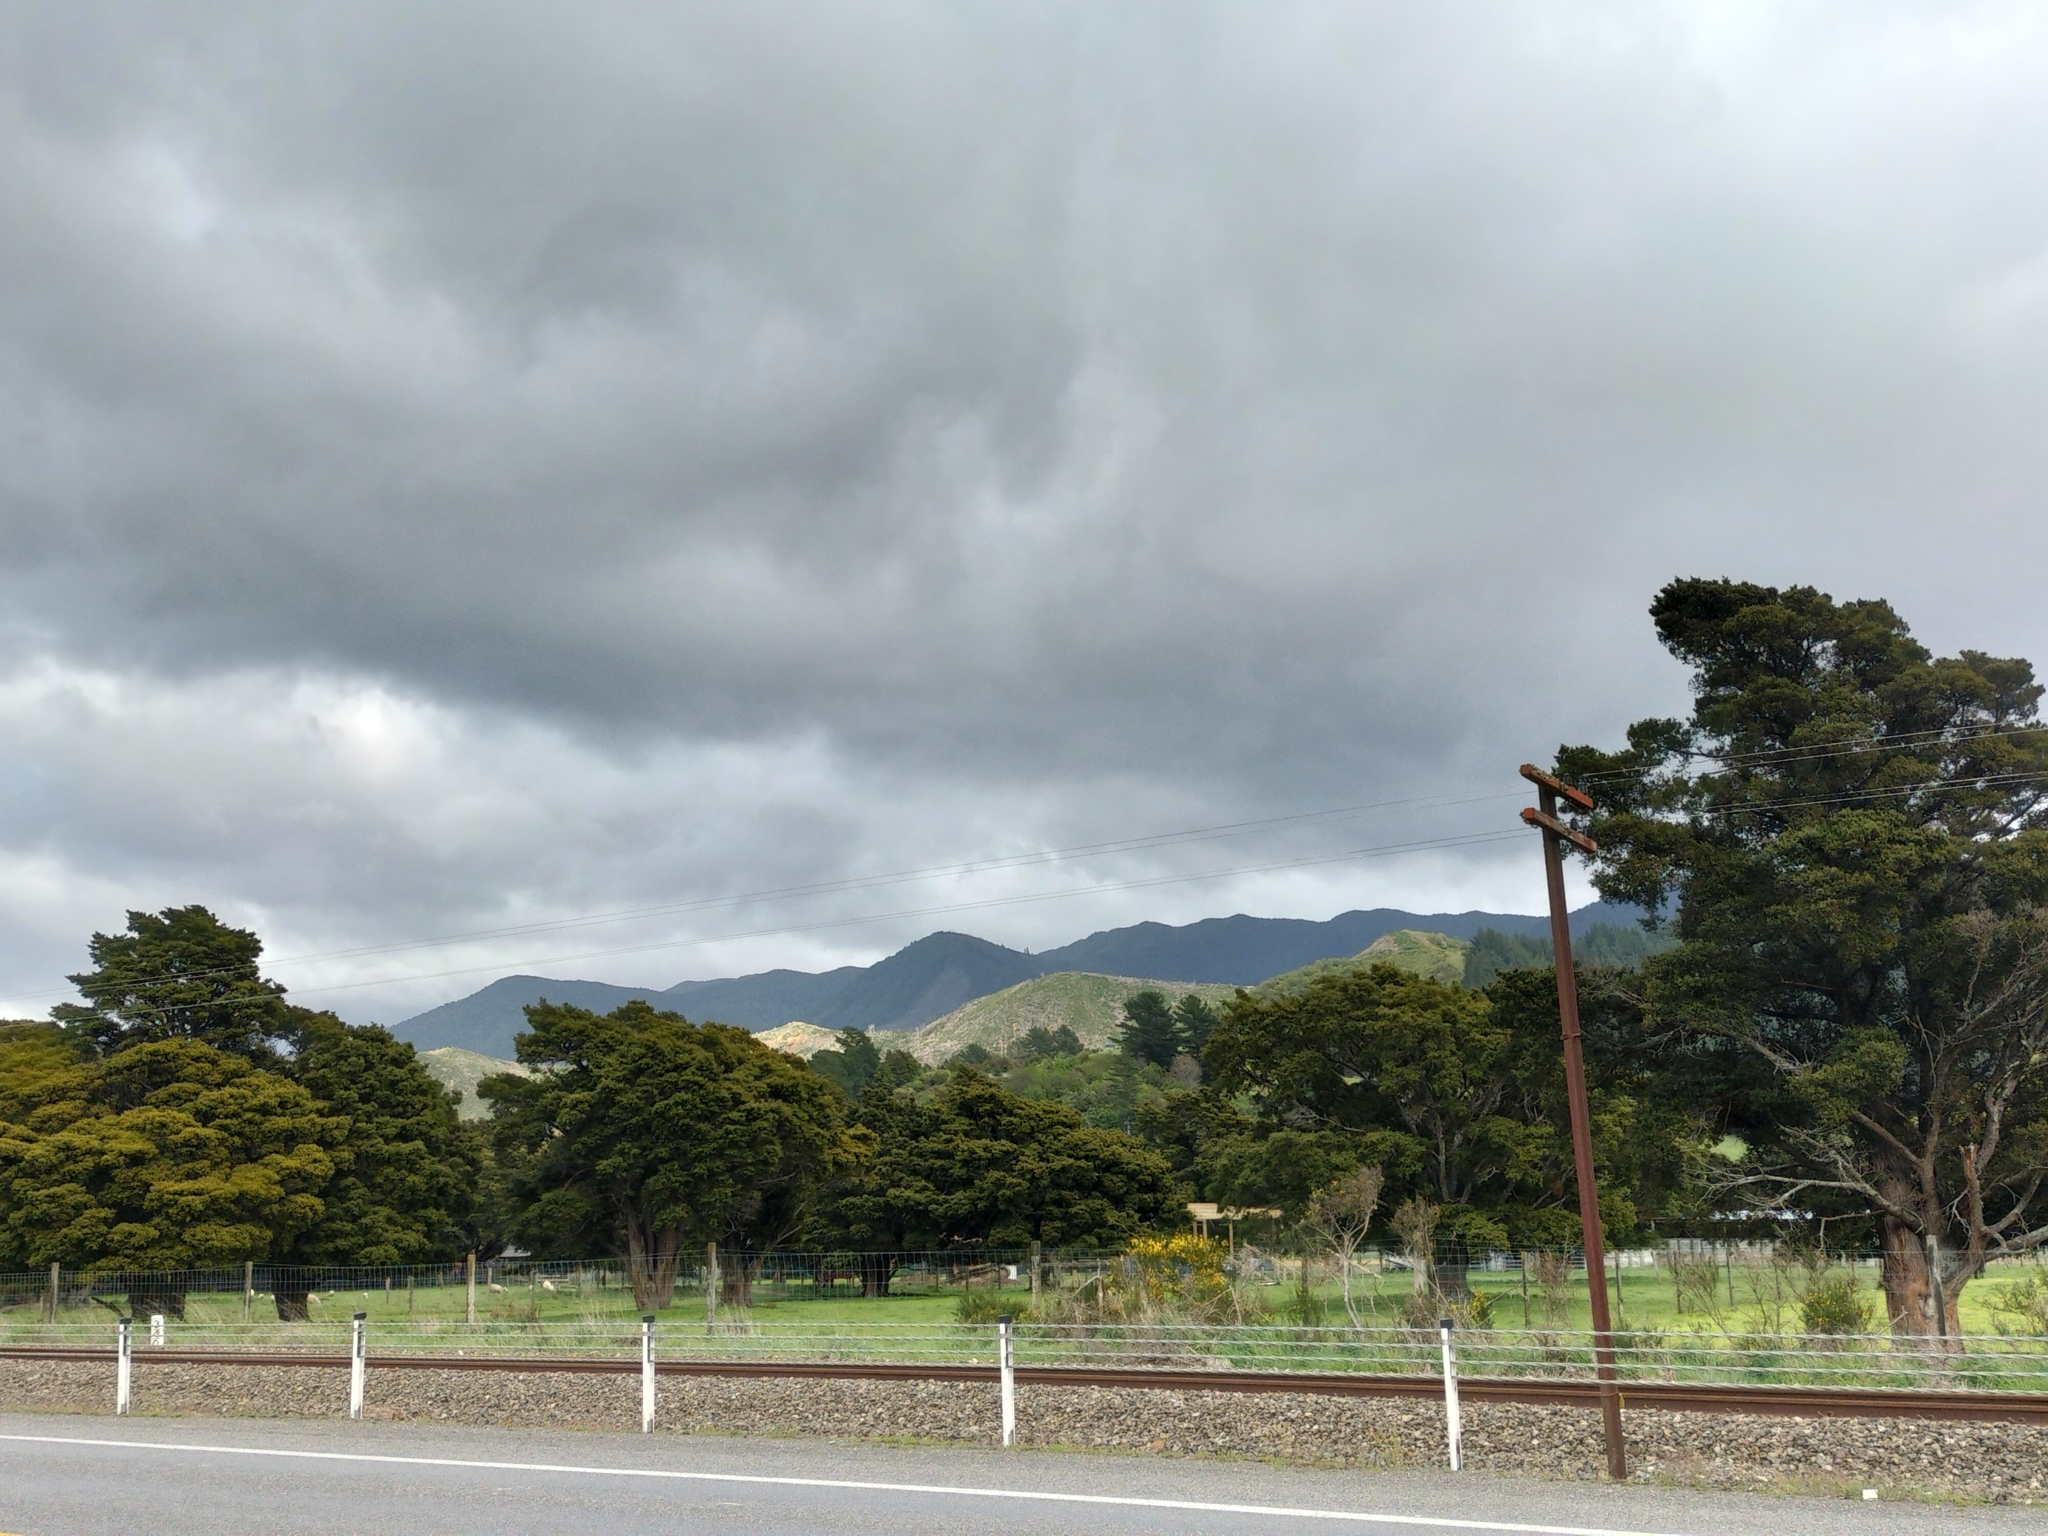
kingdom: Plantae
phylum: Tracheophyta
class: Pinopsida
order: Pinales
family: Podocarpaceae
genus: Podocarpus
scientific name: Podocarpus totara
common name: Totara
